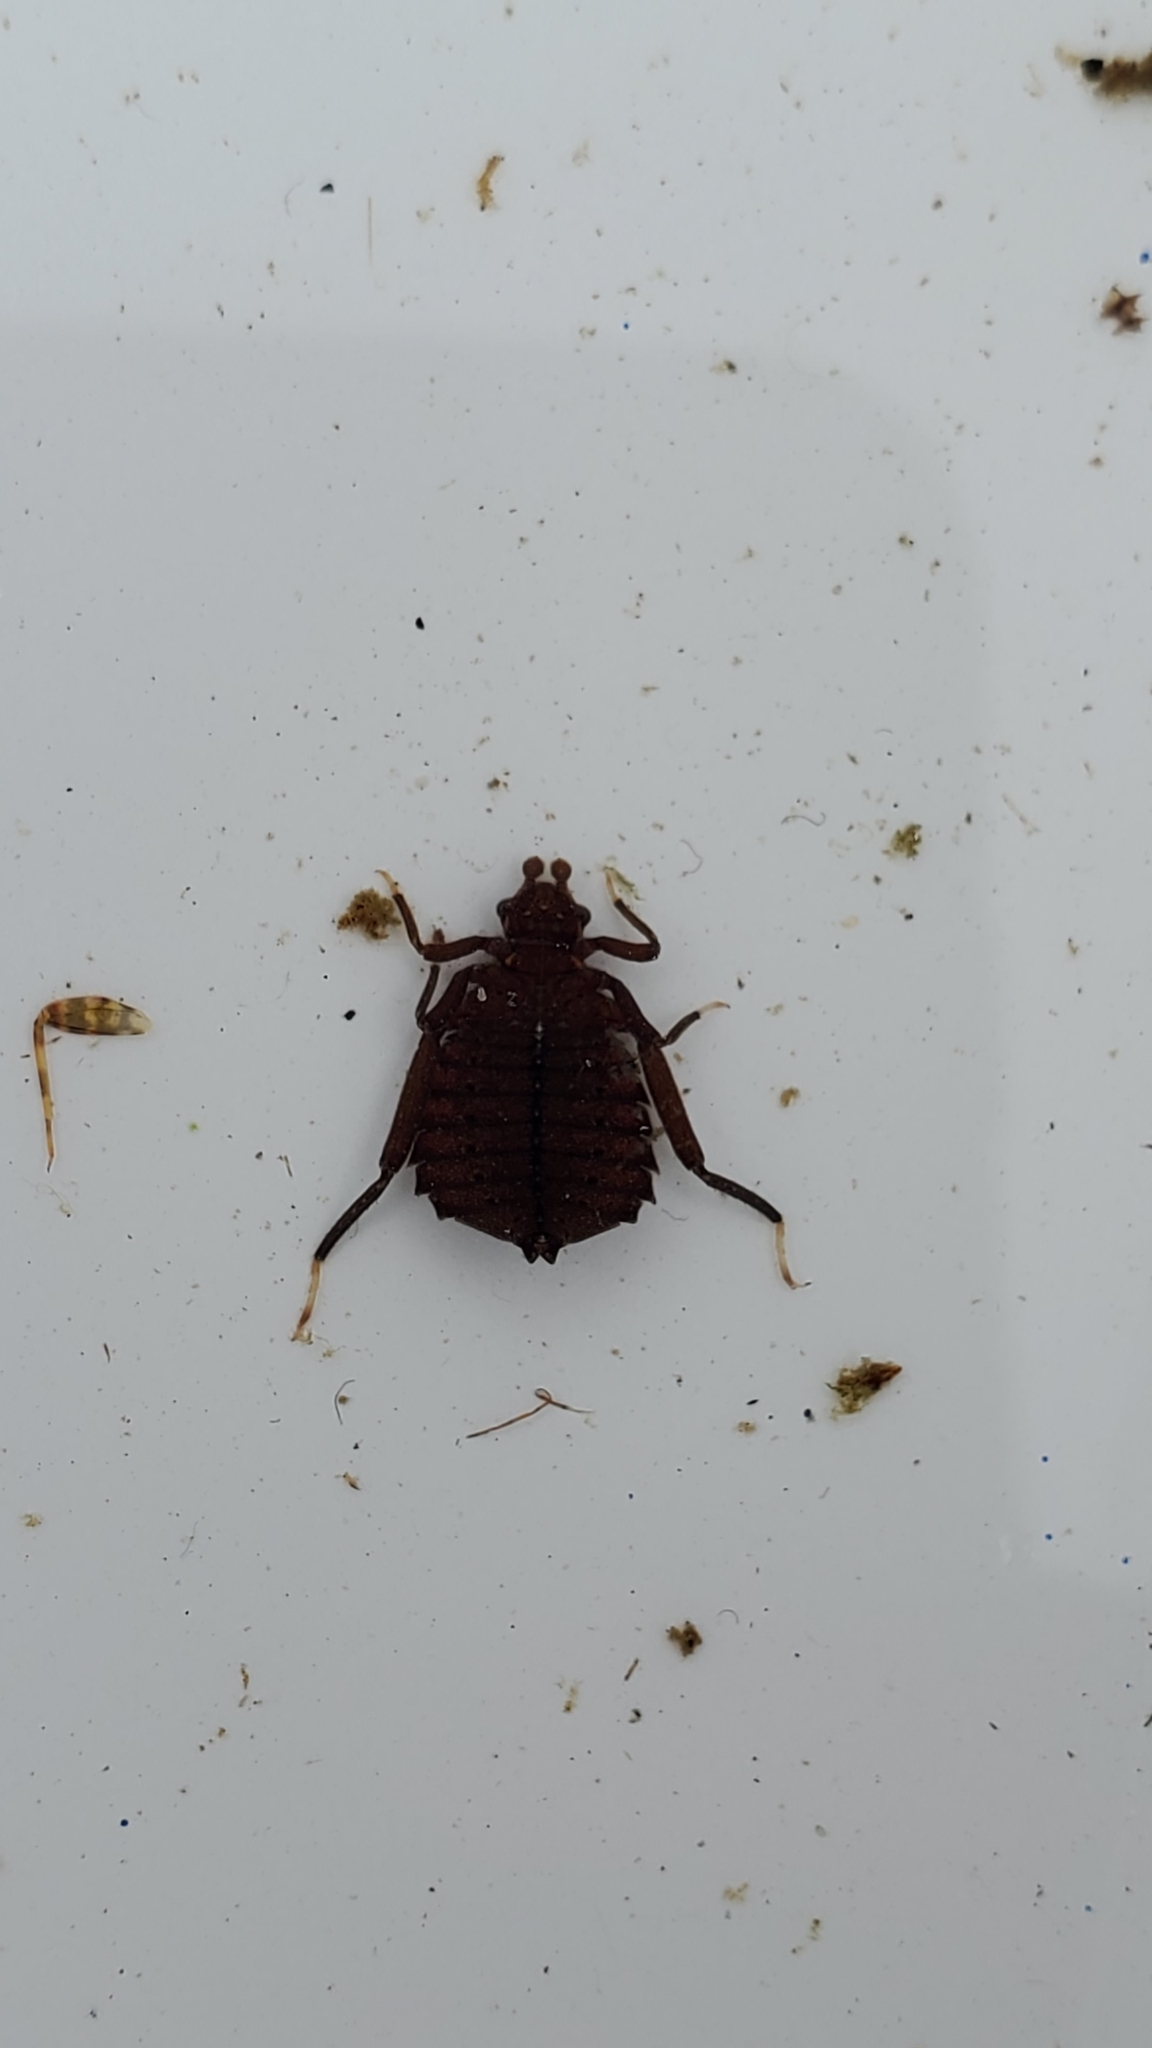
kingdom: Animalia
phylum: Arthropoda
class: Insecta
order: Odonata
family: Gomphidae
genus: Hagenius
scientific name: Hagenius brevistylus
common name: Dragonhunter
